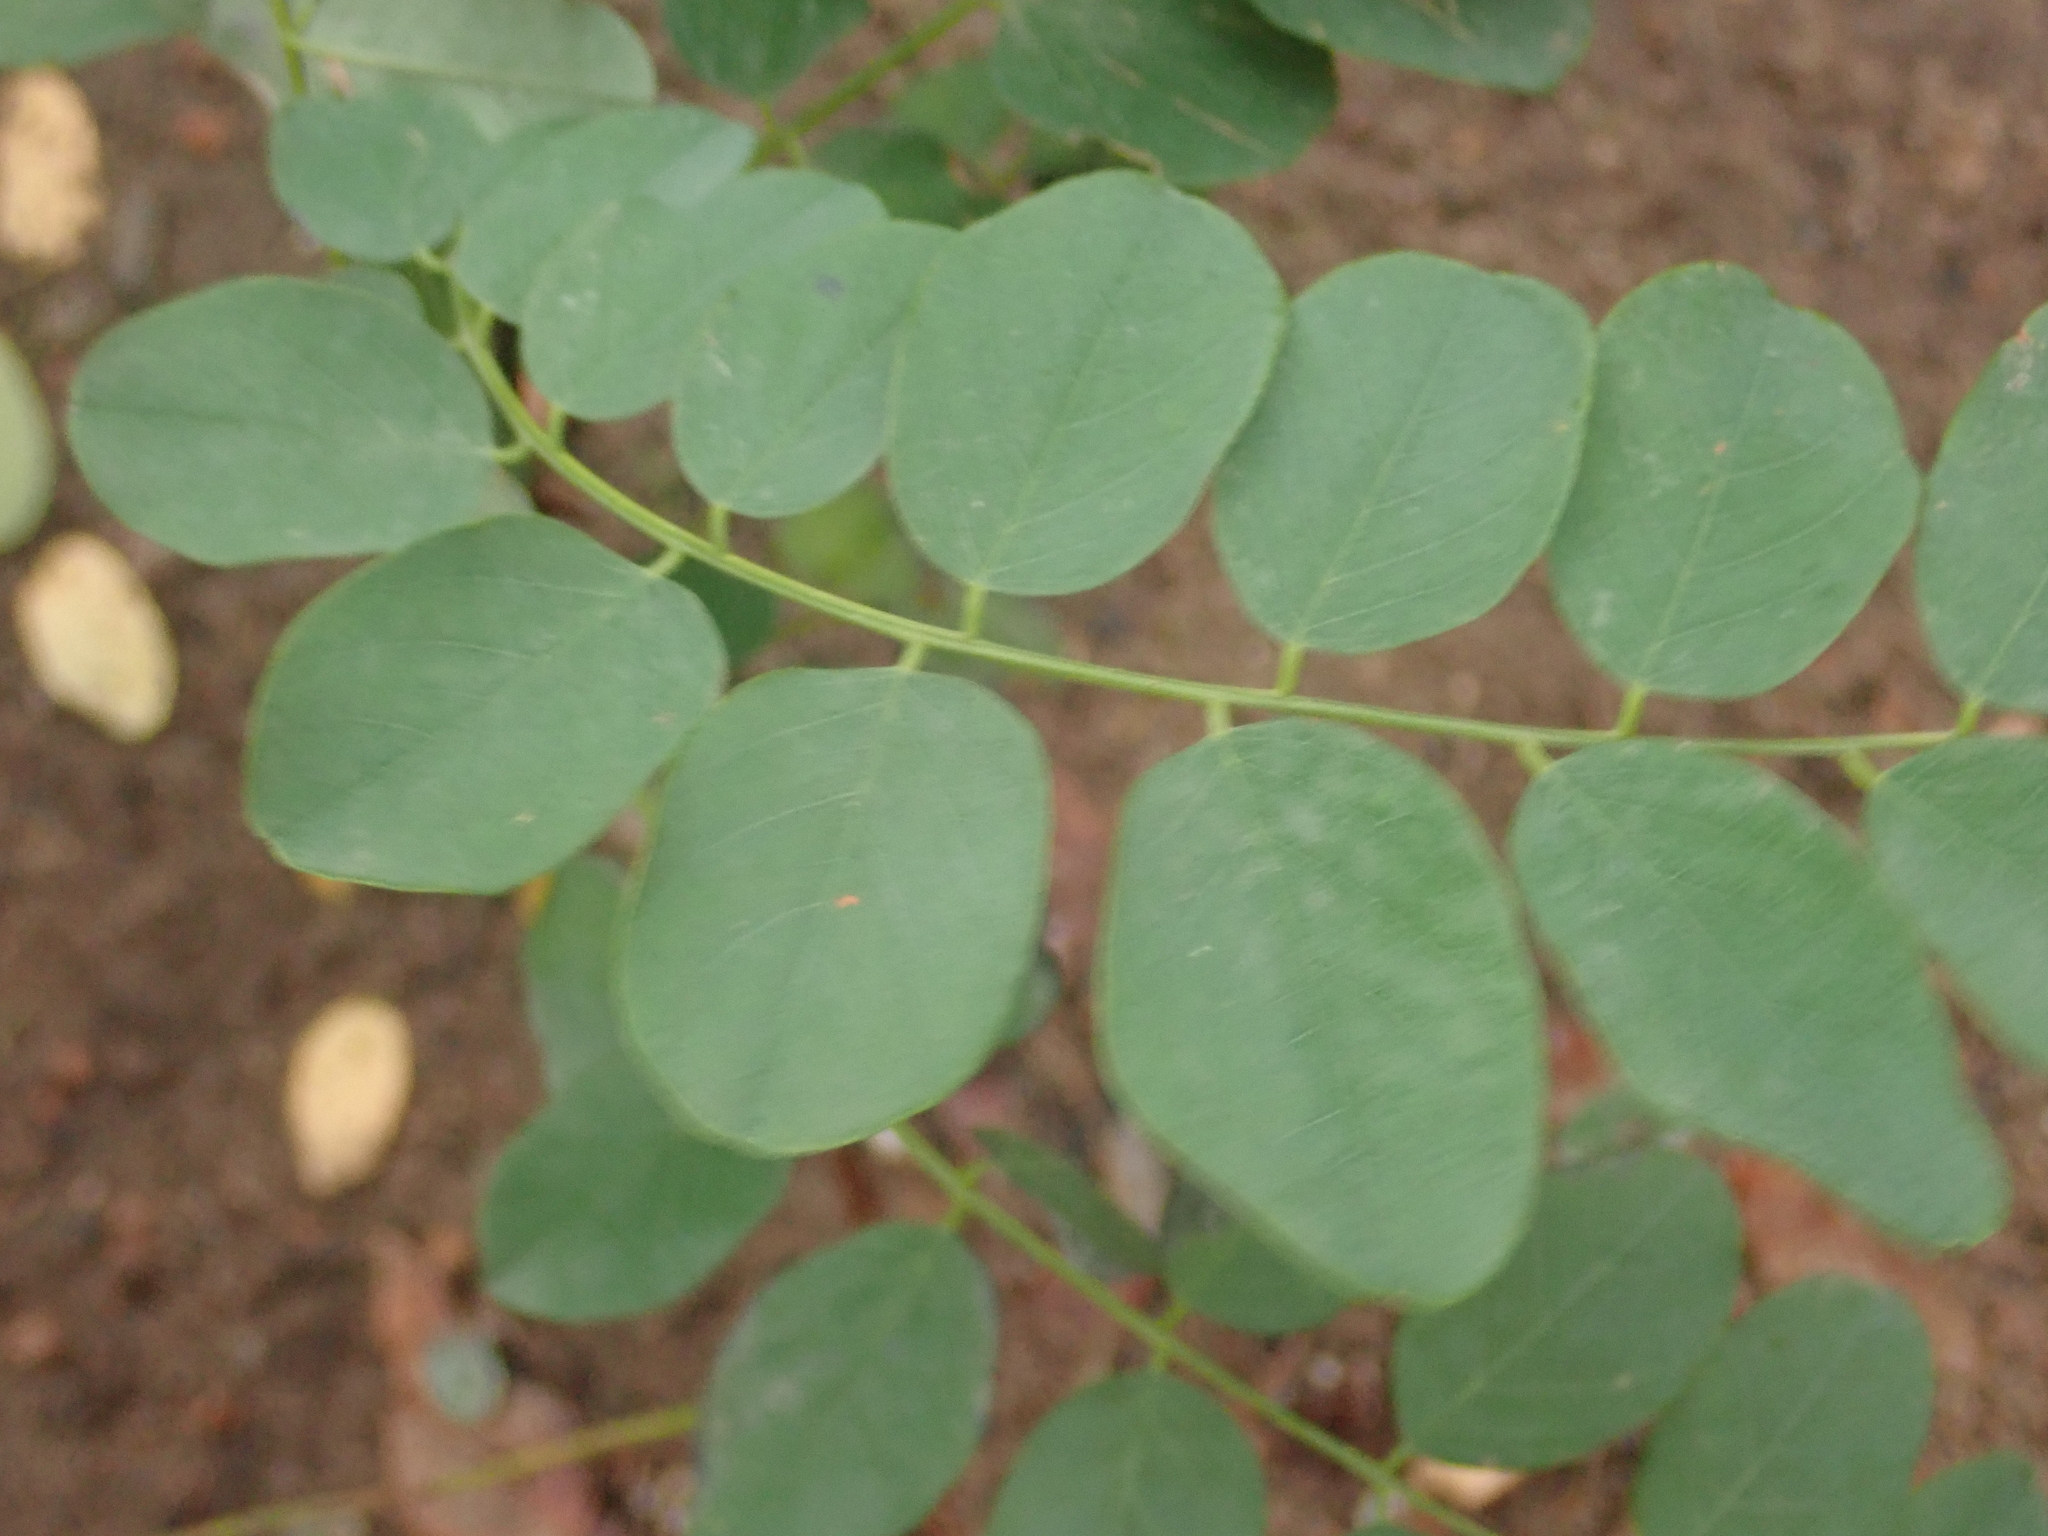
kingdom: Plantae
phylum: Tracheophyta
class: Magnoliopsida
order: Fabales
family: Fabaceae
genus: Robinia
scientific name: Robinia pseudoacacia
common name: Black locust
